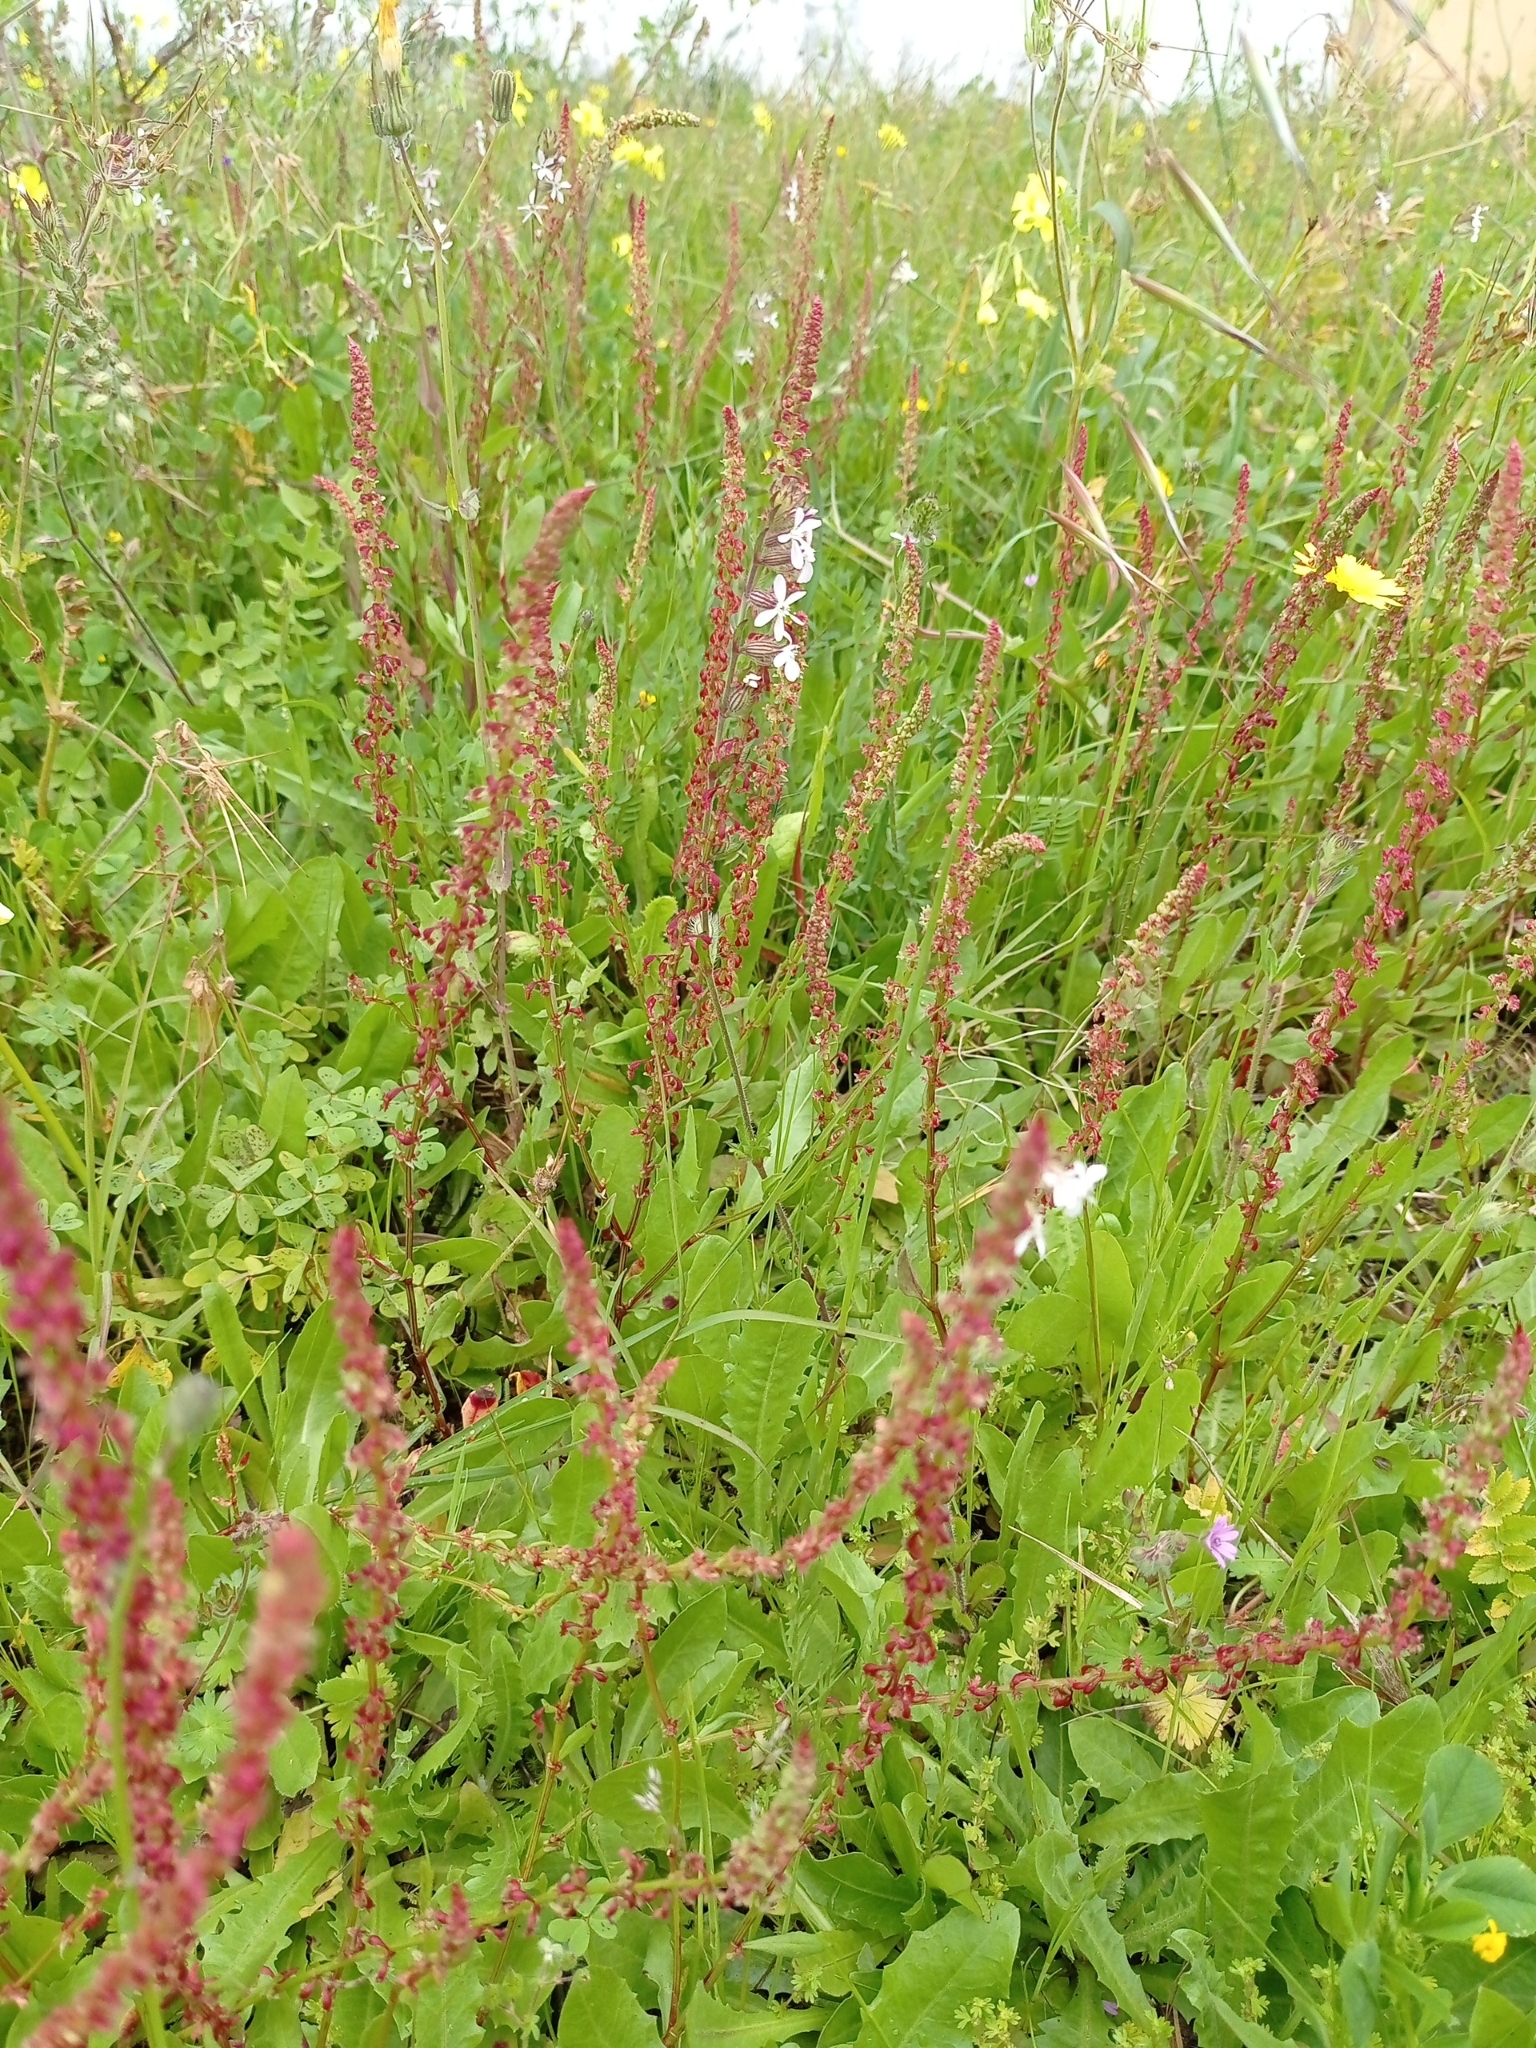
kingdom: Plantae
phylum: Tracheophyta
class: Magnoliopsida
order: Caryophyllales
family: Polygonaceae
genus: Rumex
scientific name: Rumex bucephalophorus
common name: Red dock
